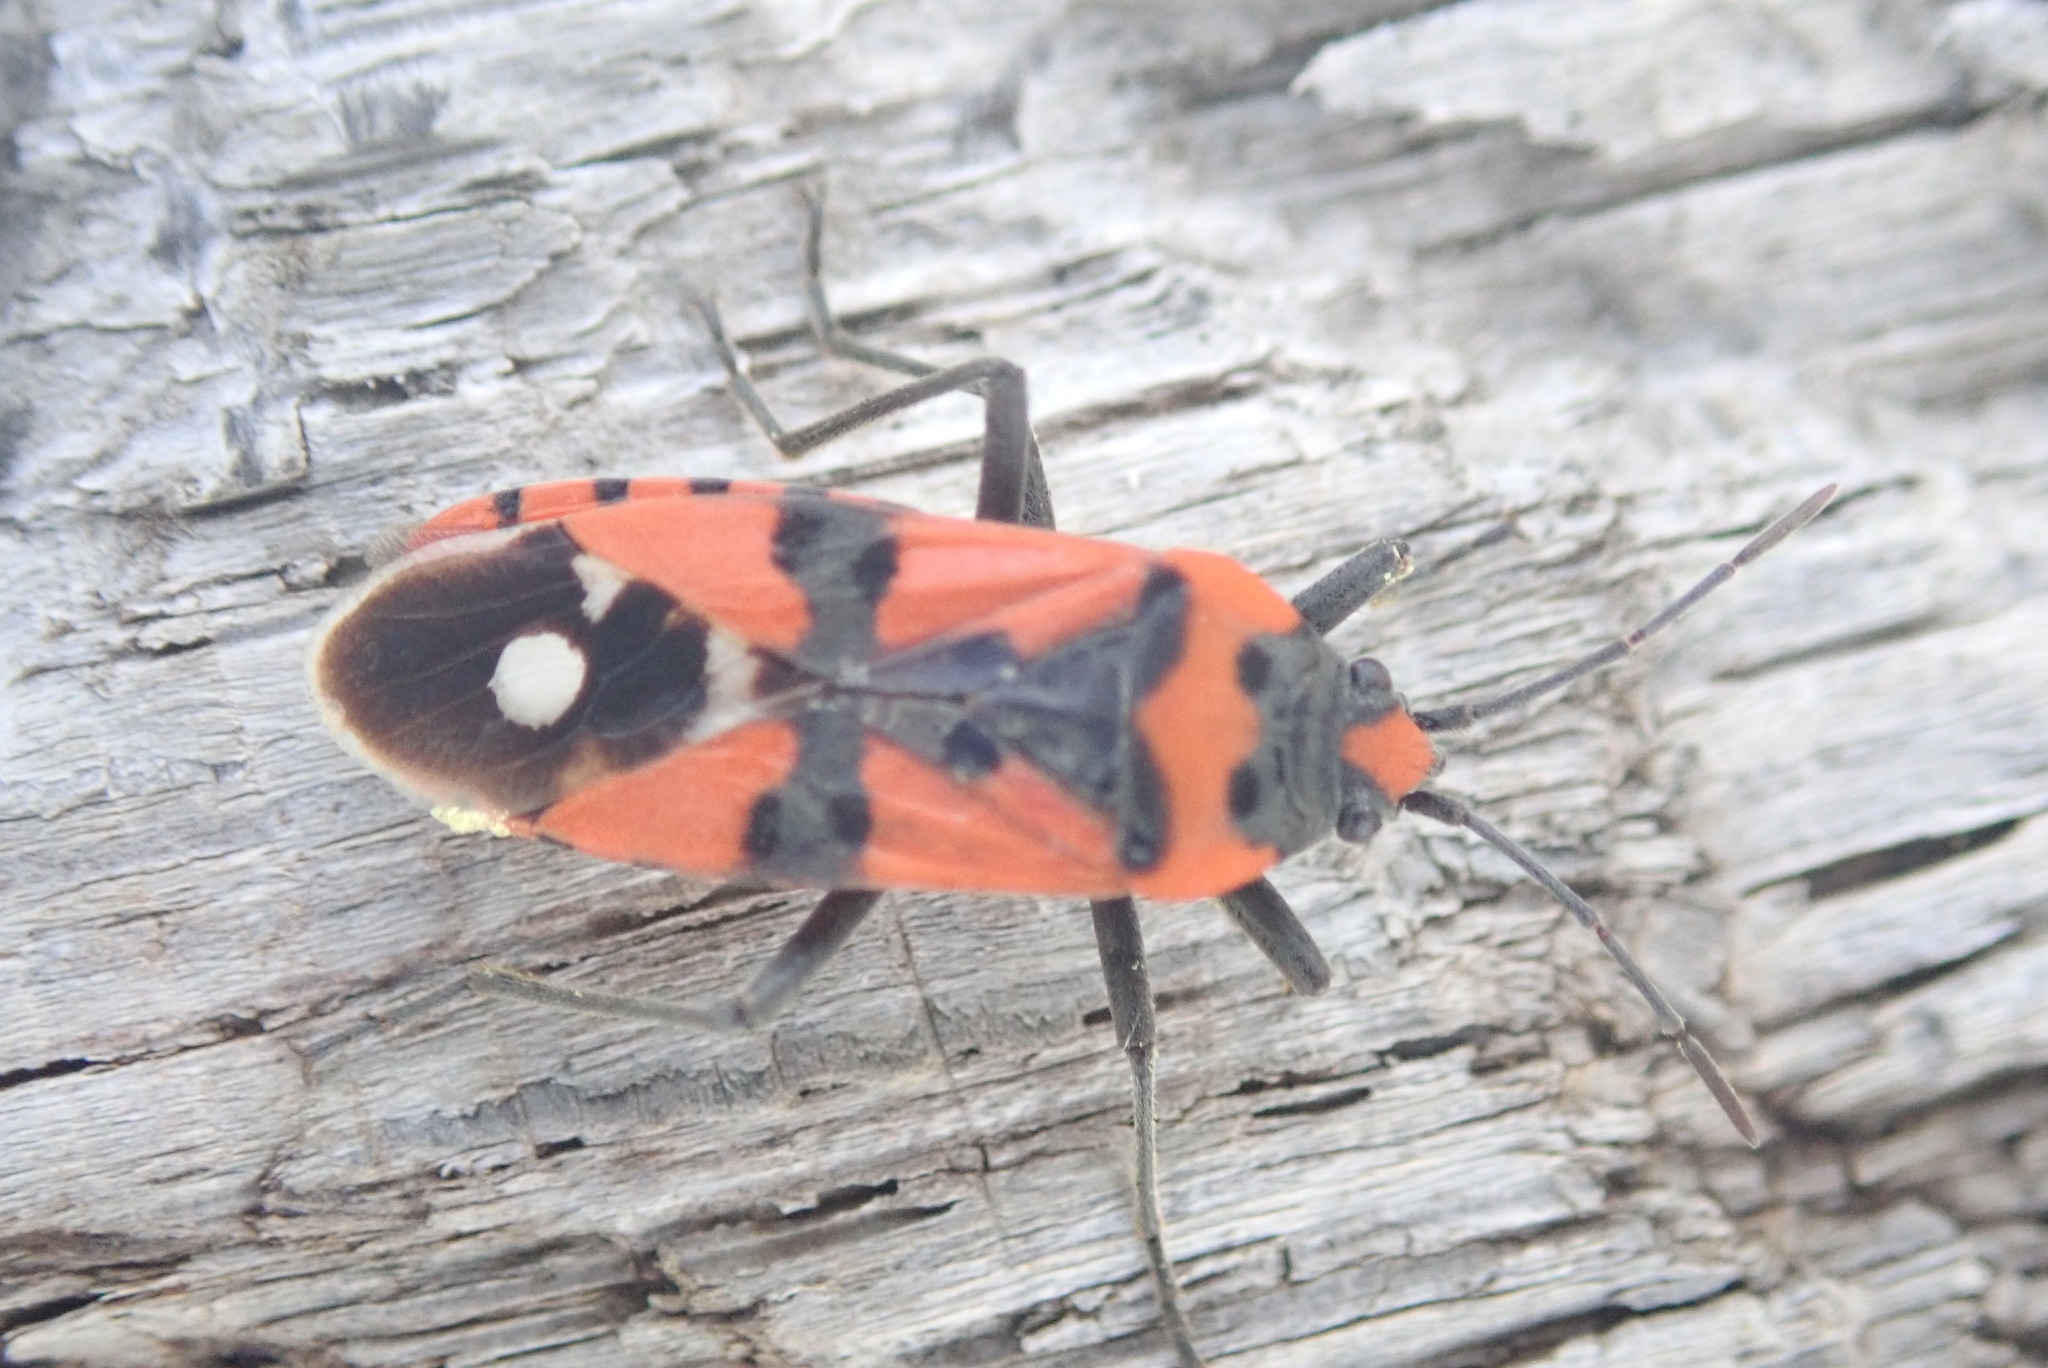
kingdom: Animalia
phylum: Arthropoda
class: Insecta
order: Hemiptera
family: Lygaeidae
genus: Lygaeus
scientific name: Lygaeus equestris
